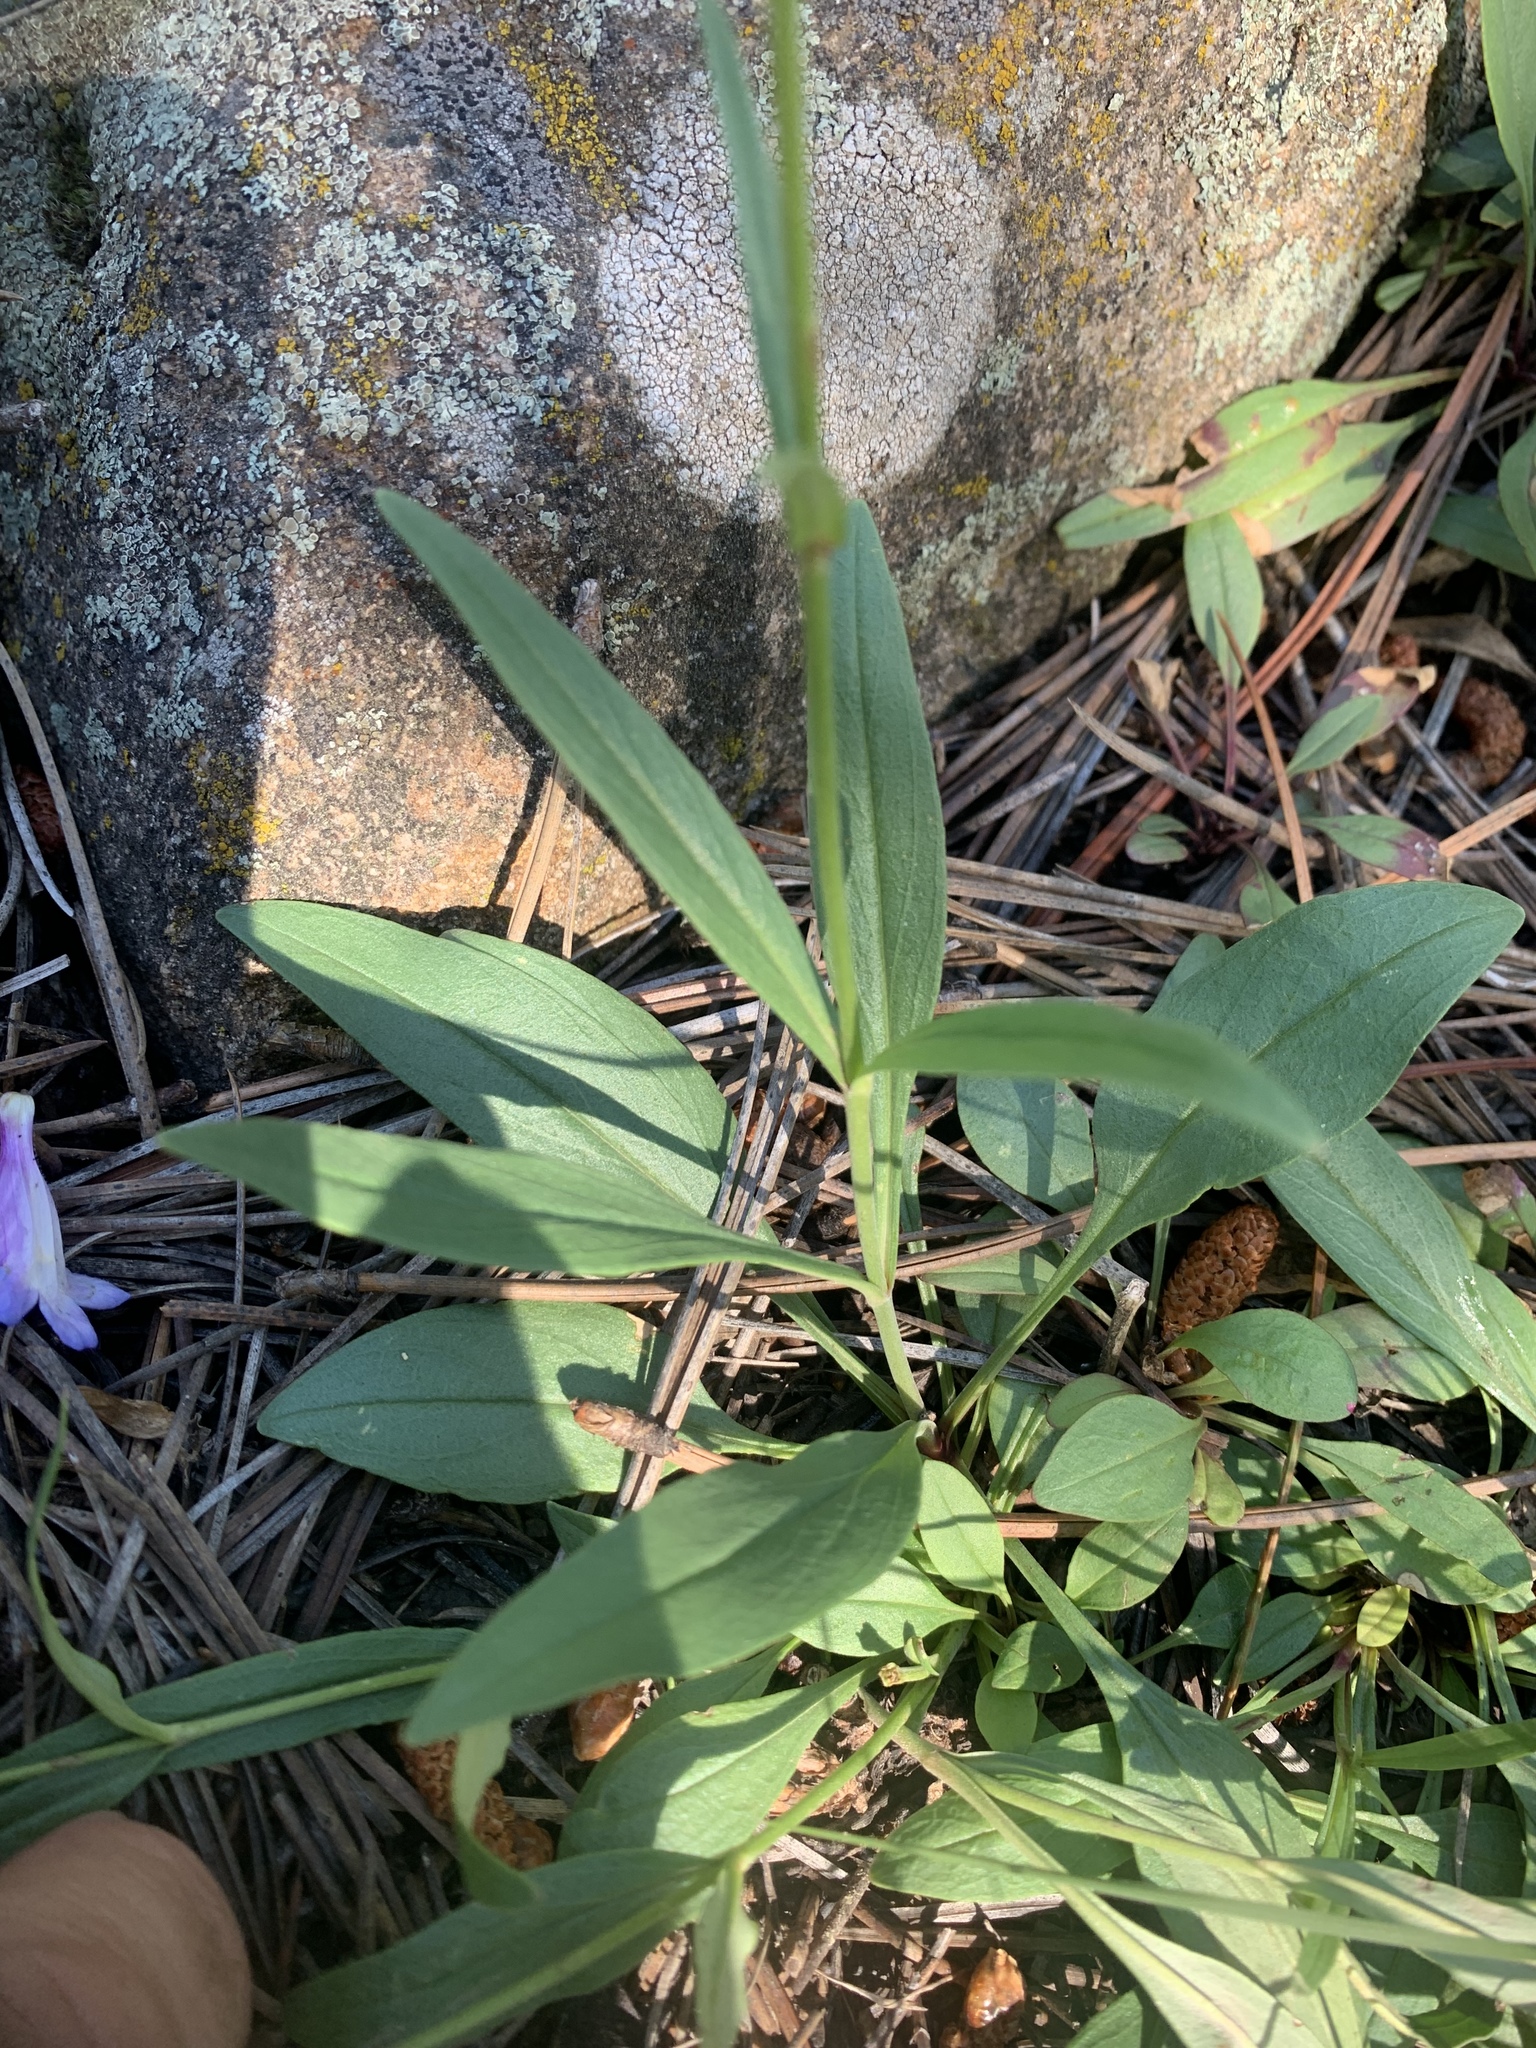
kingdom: Plantae
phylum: Tracheophyta
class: Magnoliopsida
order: Lamiales
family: Plantaginaceae
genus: Penstemon
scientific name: Penstemon inflatus
